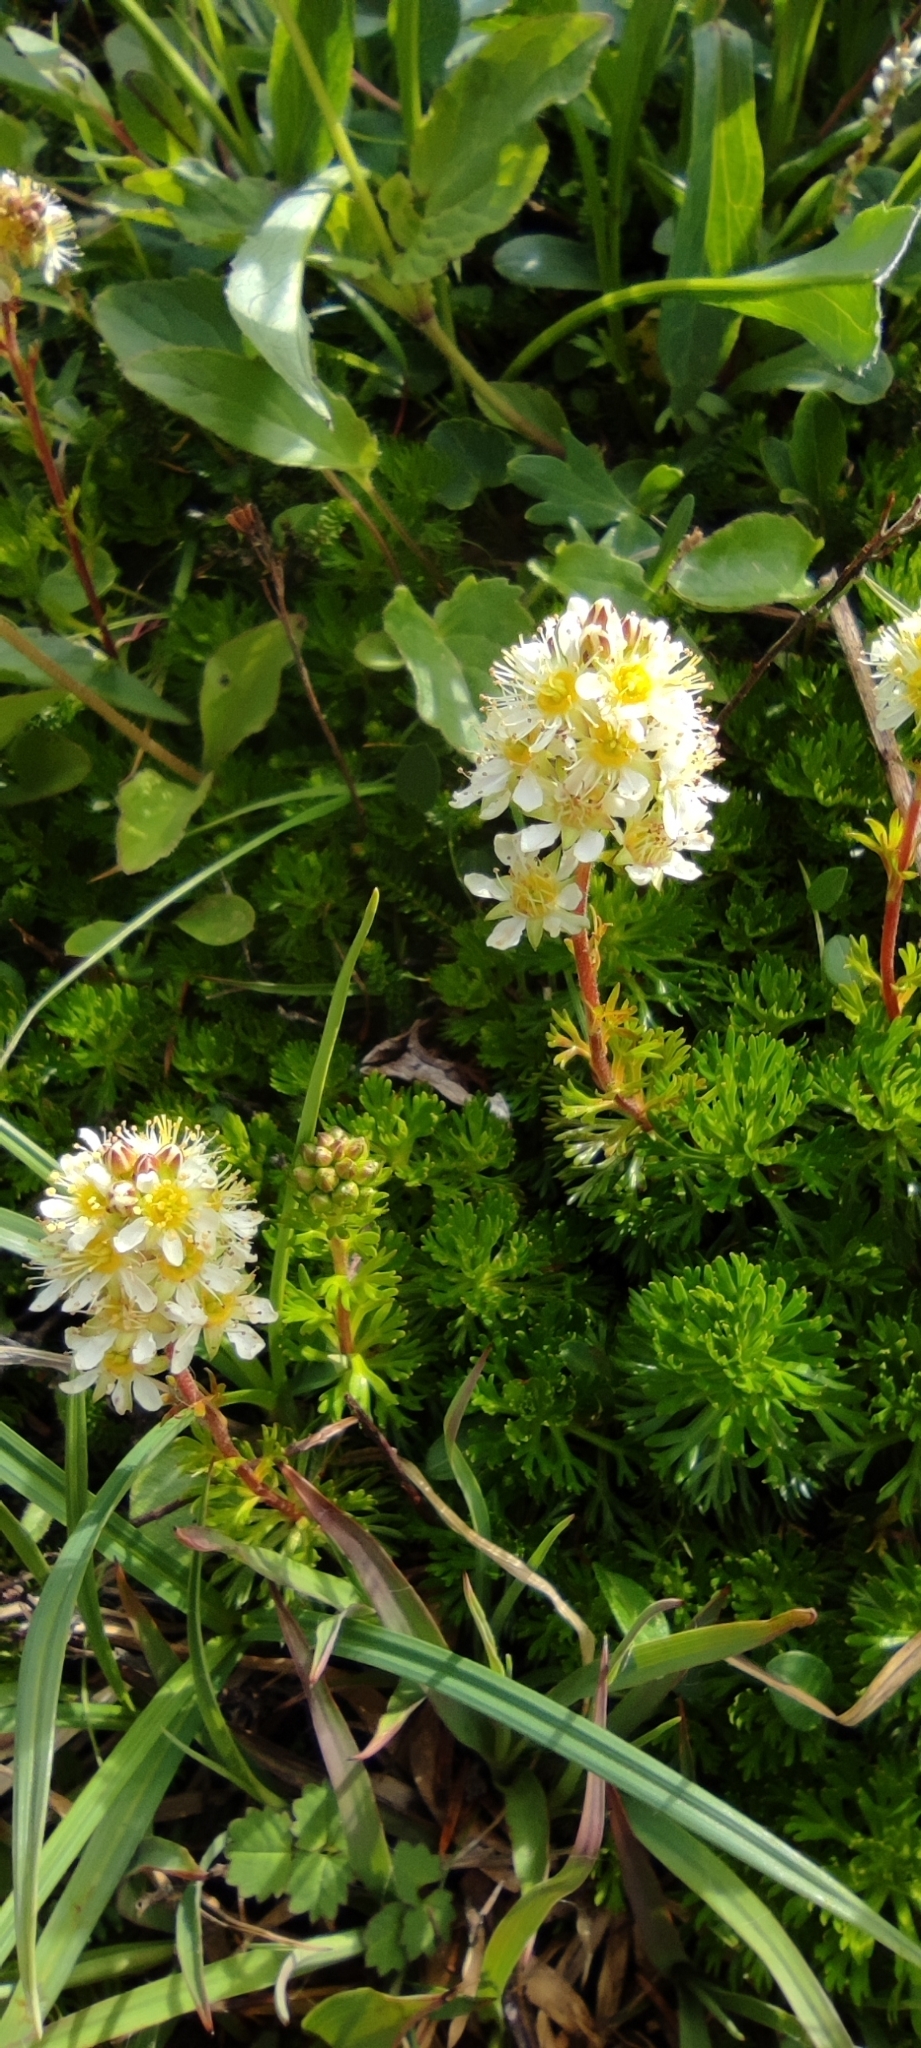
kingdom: Plantae
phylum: Tracheophyta
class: Magnoliopsida
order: Rosales
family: Rosaceae
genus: Luetkea
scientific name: Luetkea pectinata
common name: Partridgefoot
